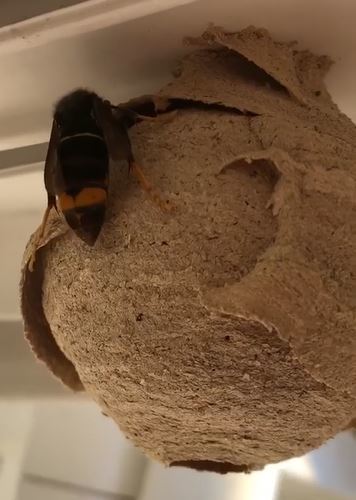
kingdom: Animalia
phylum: Arthropoda
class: Insecta
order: Hymenoptera
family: Vespidae
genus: Vespa
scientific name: Vespa velutina
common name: Asian hornet
